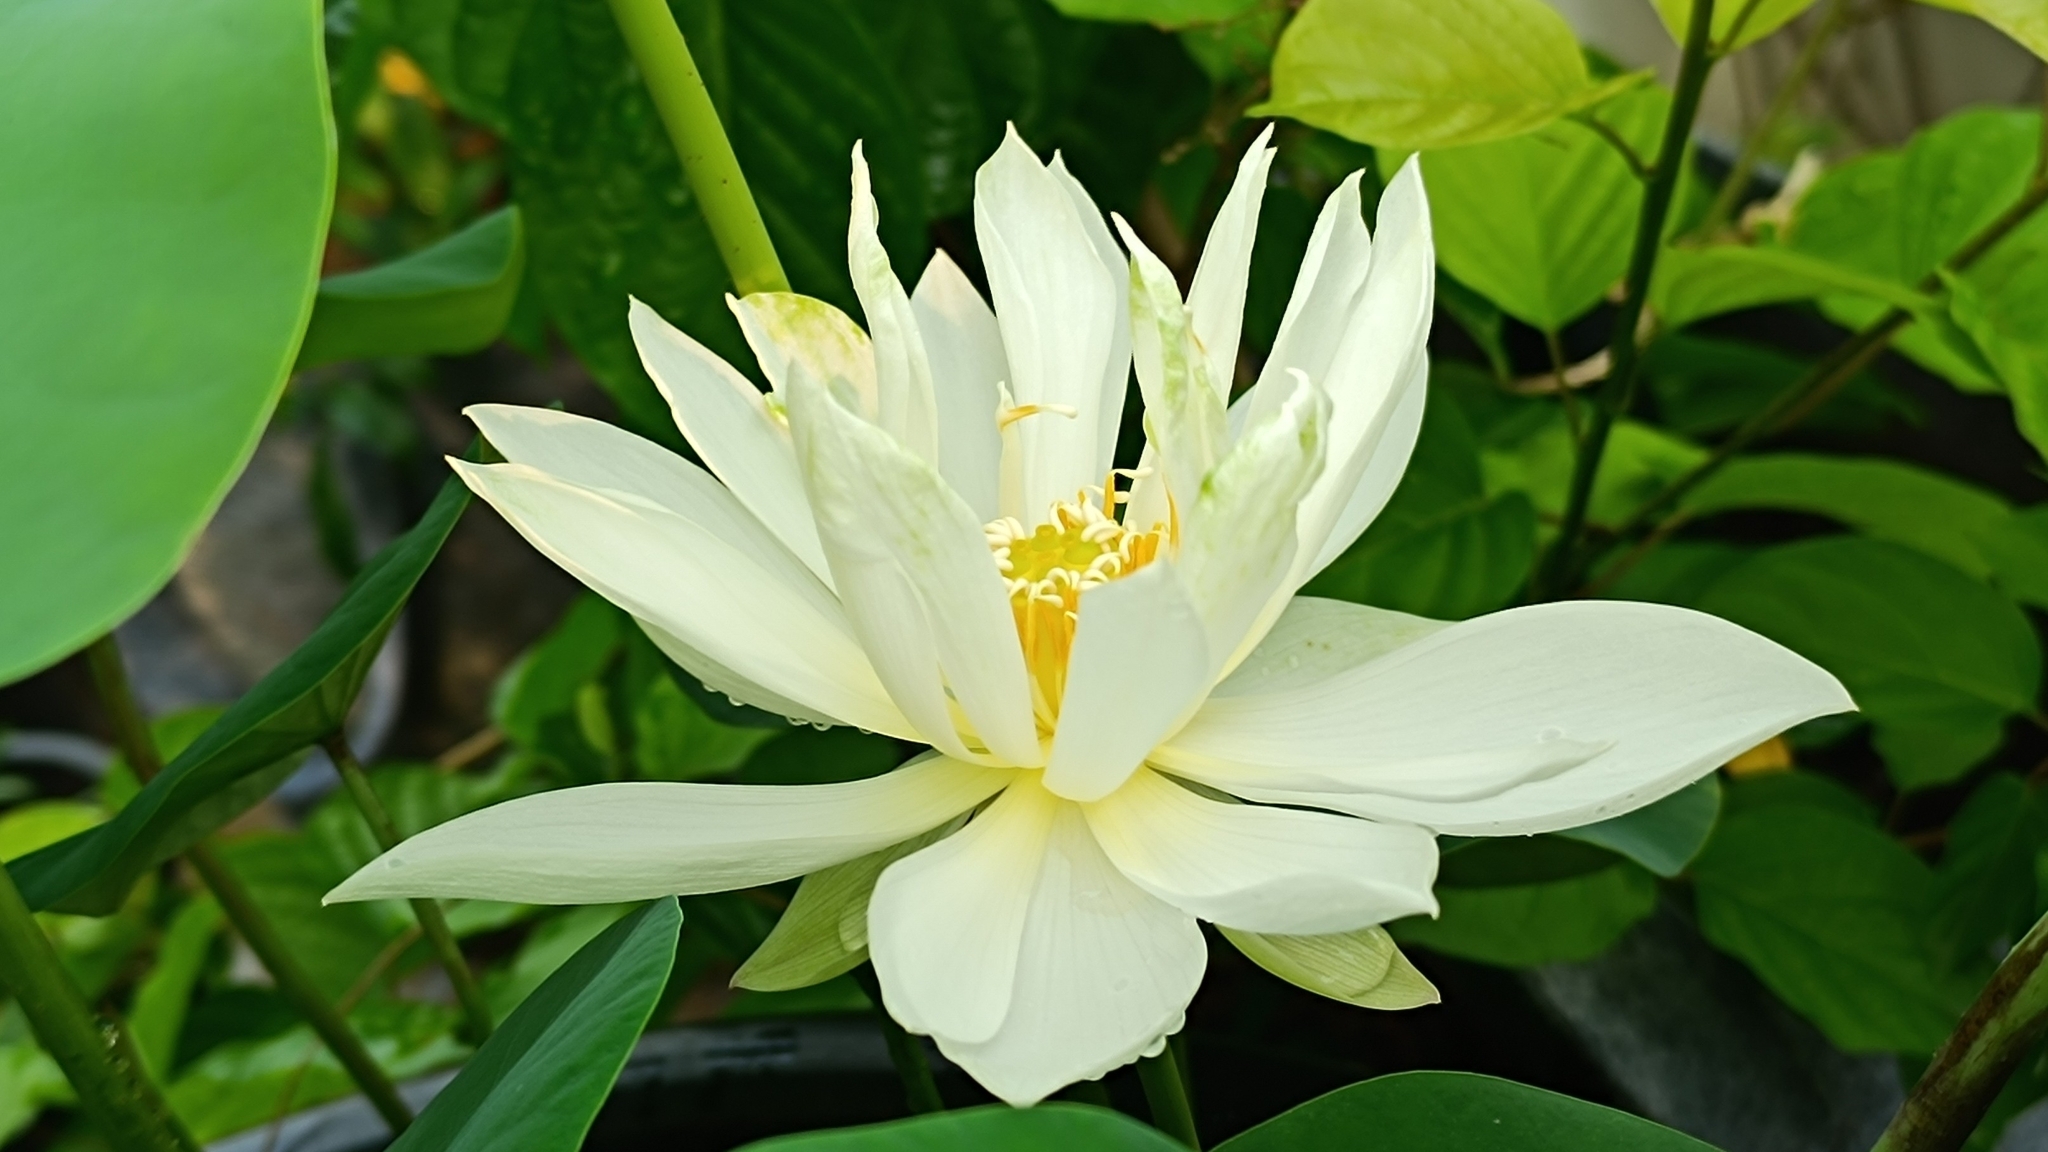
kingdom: Plantae
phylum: Tracheophyta
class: Magnoliopsida
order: Proteales
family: Nelumbonaceae
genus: Nelumbo
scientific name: Nelumbo nucifera
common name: Sacred lotus
